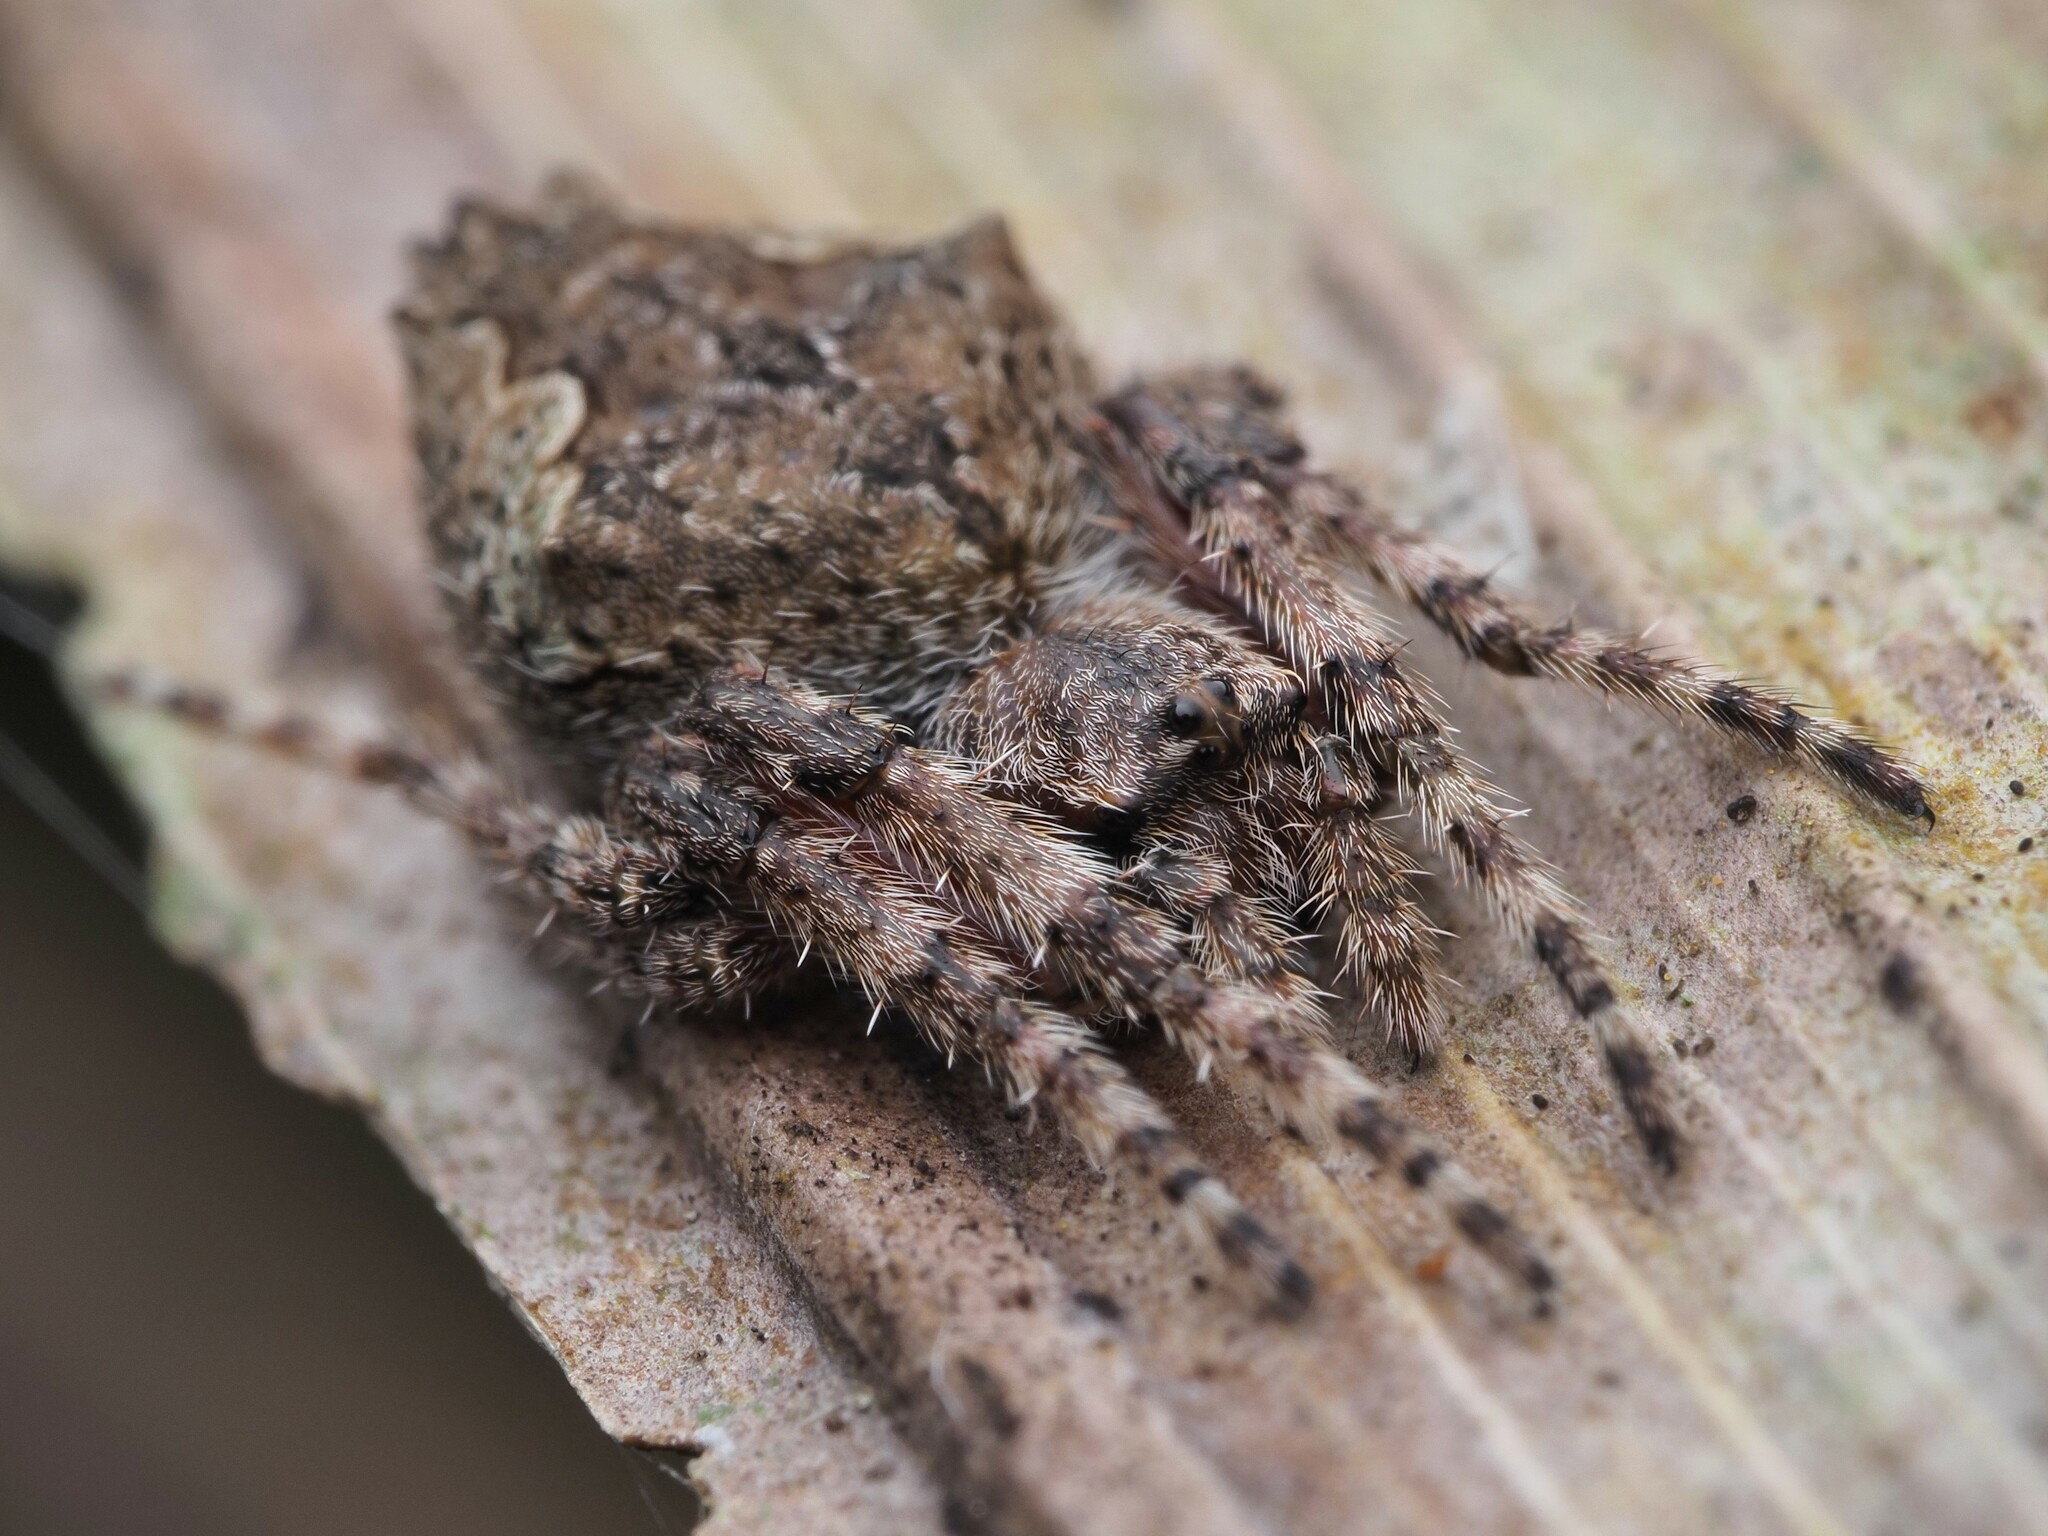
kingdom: Animalia
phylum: Arthropoda
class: Arachnida
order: Araneae
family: Araneidae
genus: Eriophora
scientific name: Eriophora pustulosa
